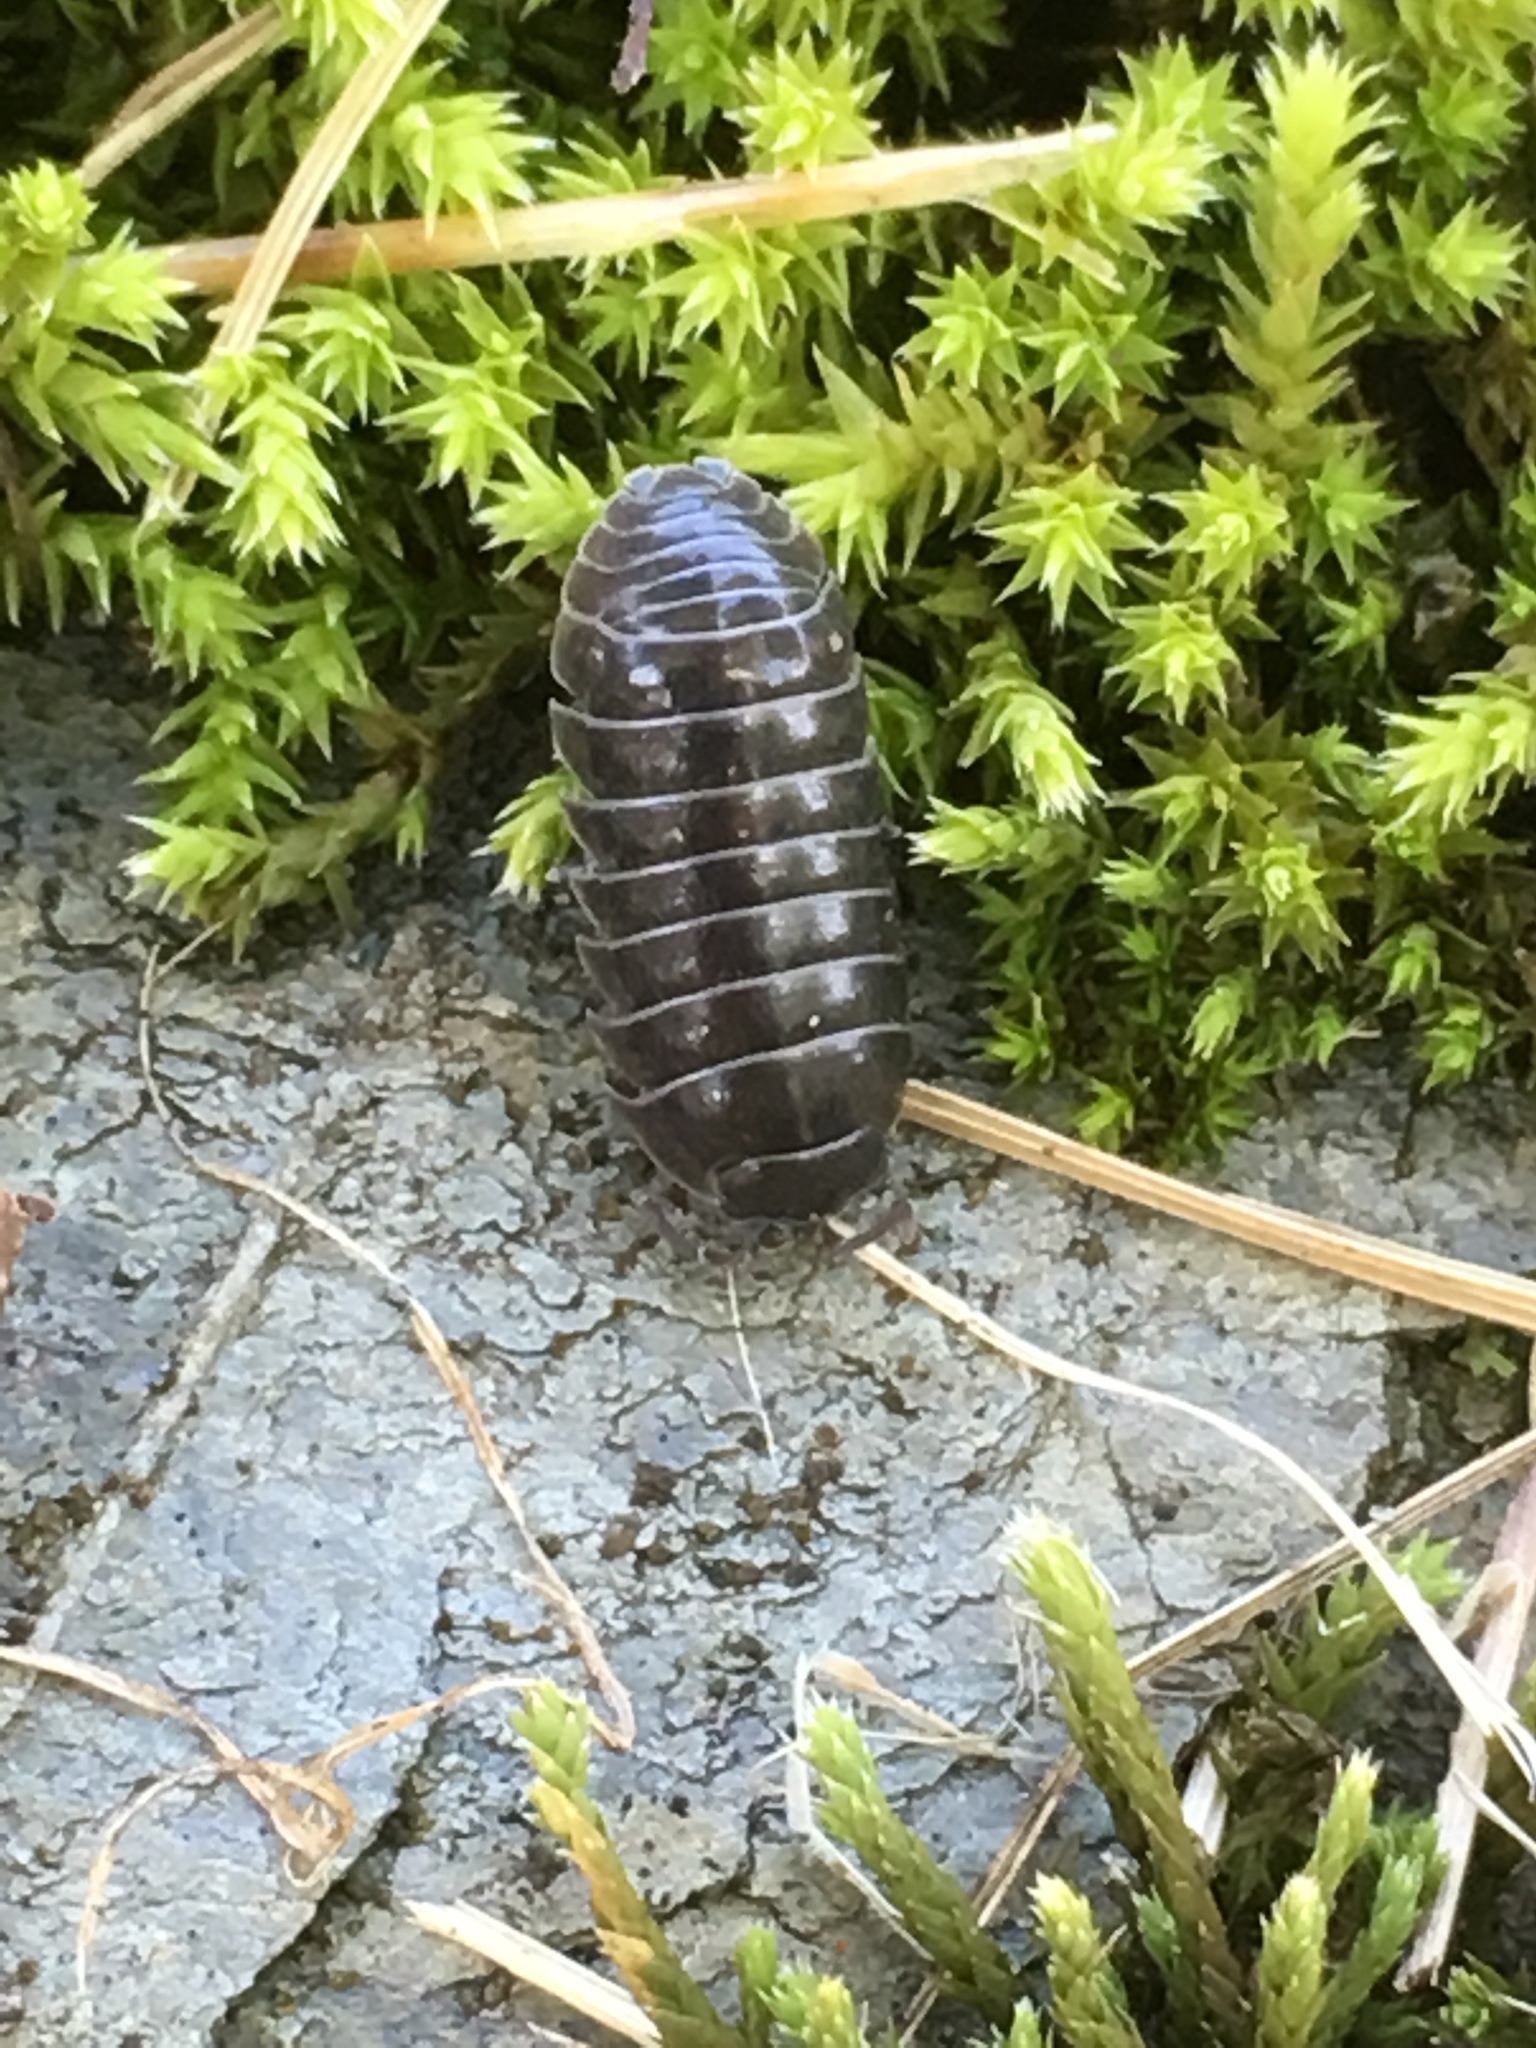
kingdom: Animalia
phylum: Arthropoda
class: Malacostraca
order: Isopoda
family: Armadillidiidae
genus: Armadillidium
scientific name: Armadillidium vulgare
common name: Common pill woodlouse
